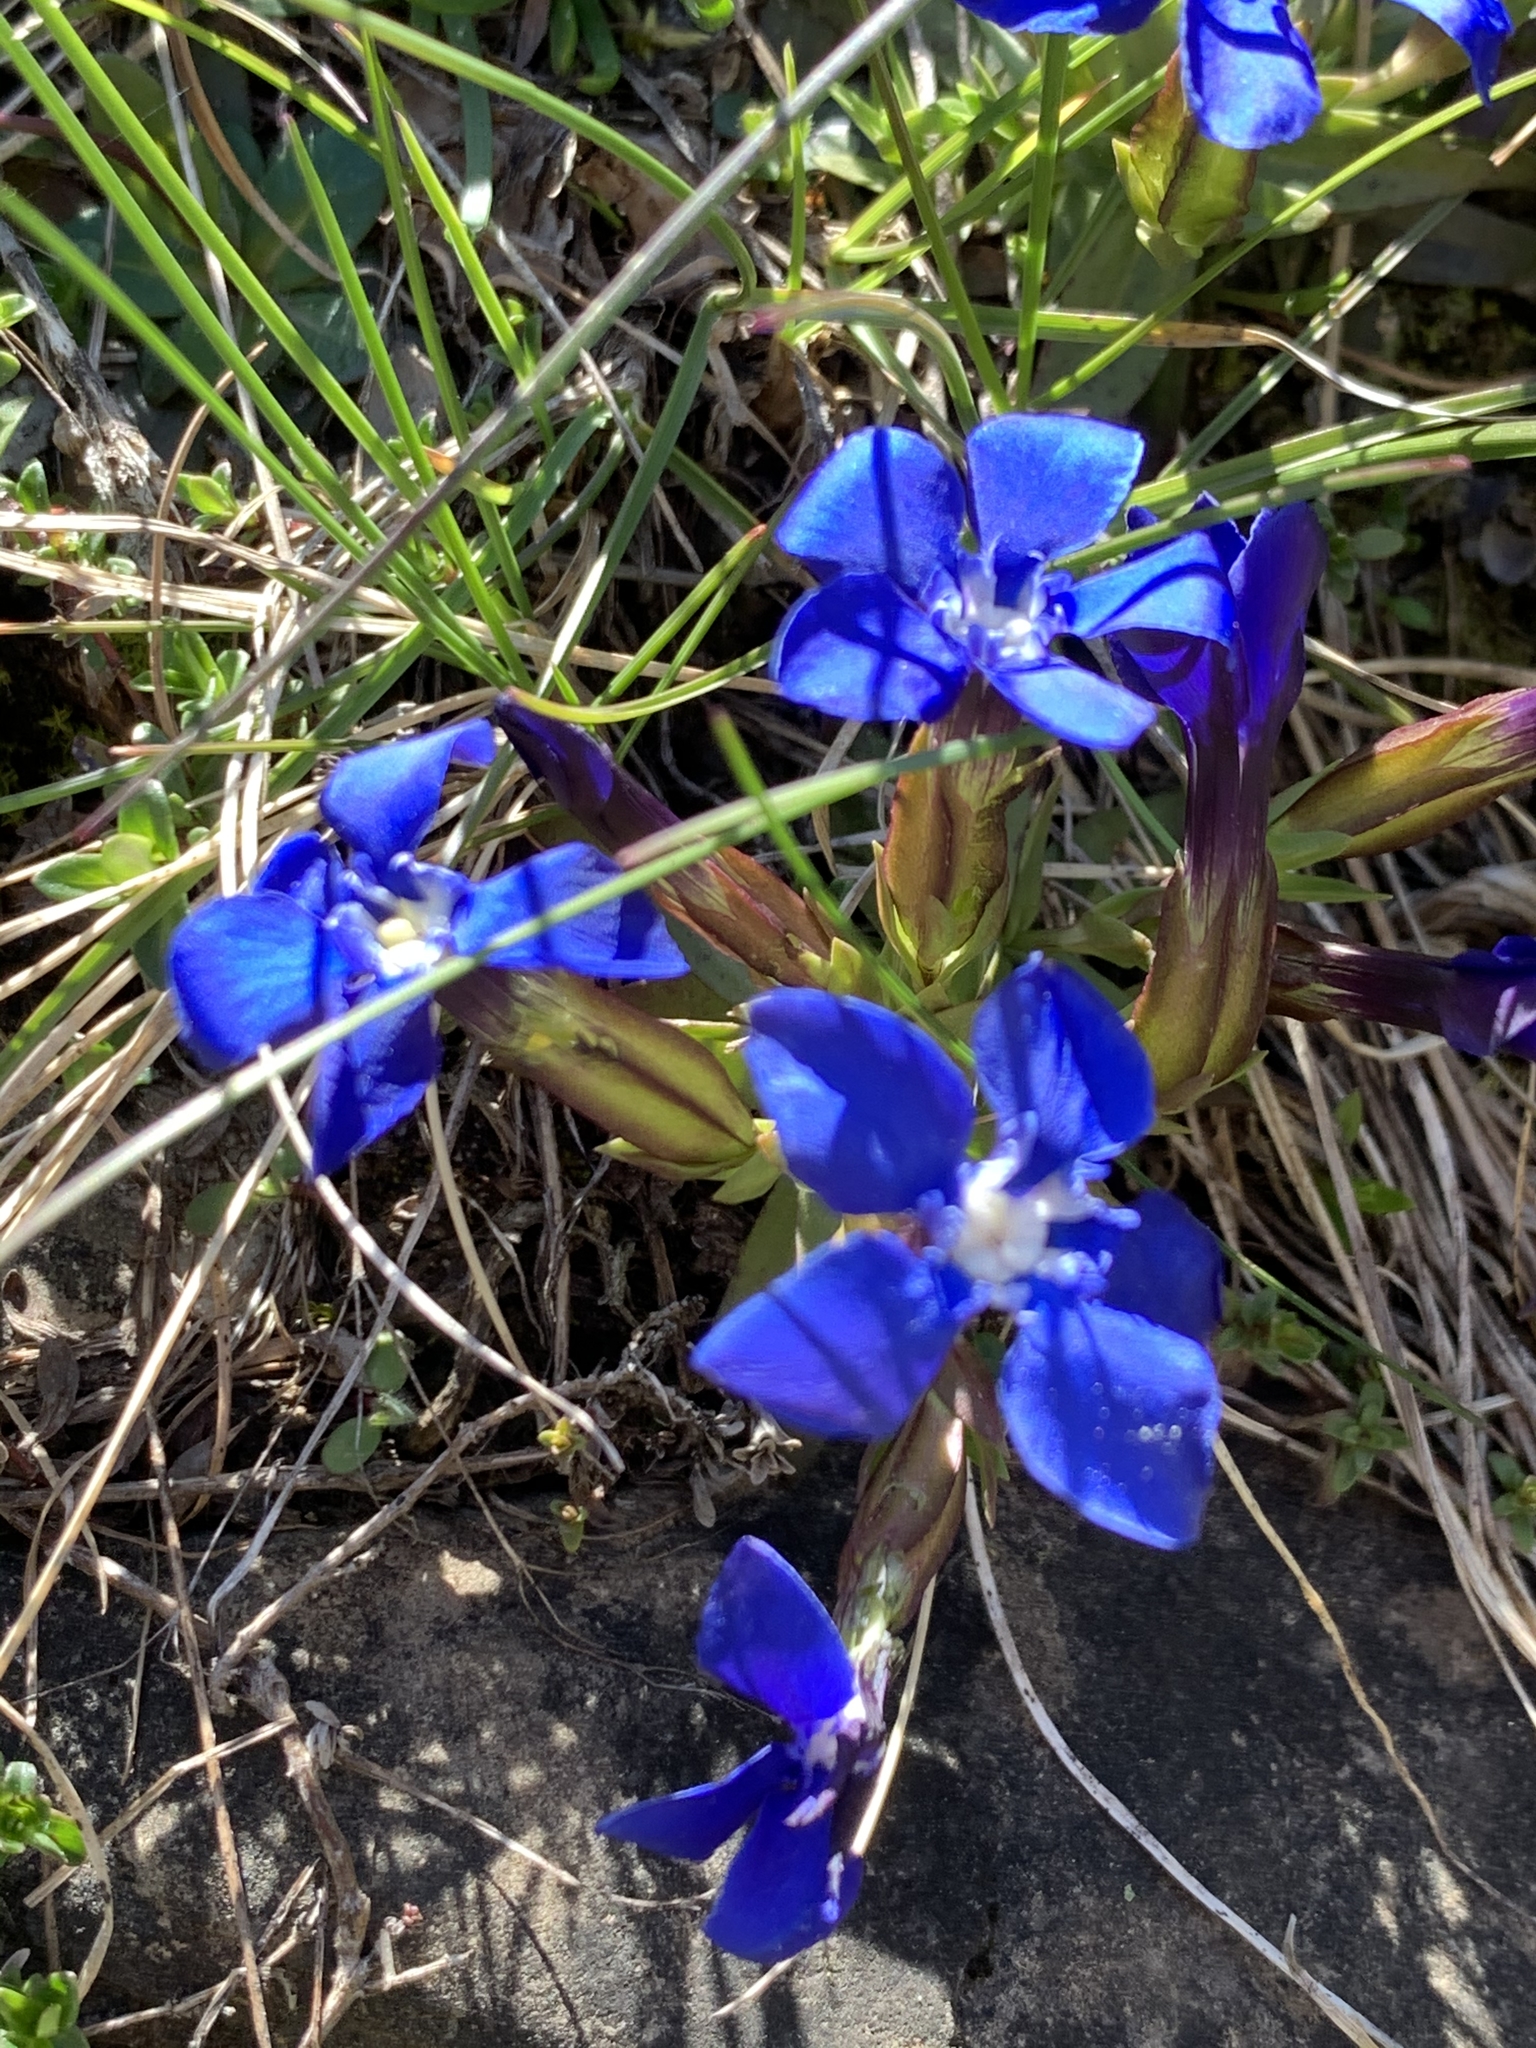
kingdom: Plantae
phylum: Tracheophyta
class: Magnoliopsida
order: Gentianales
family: Gentianaceae
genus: Gentiana
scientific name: Gentiana verna
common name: Spring gentian
